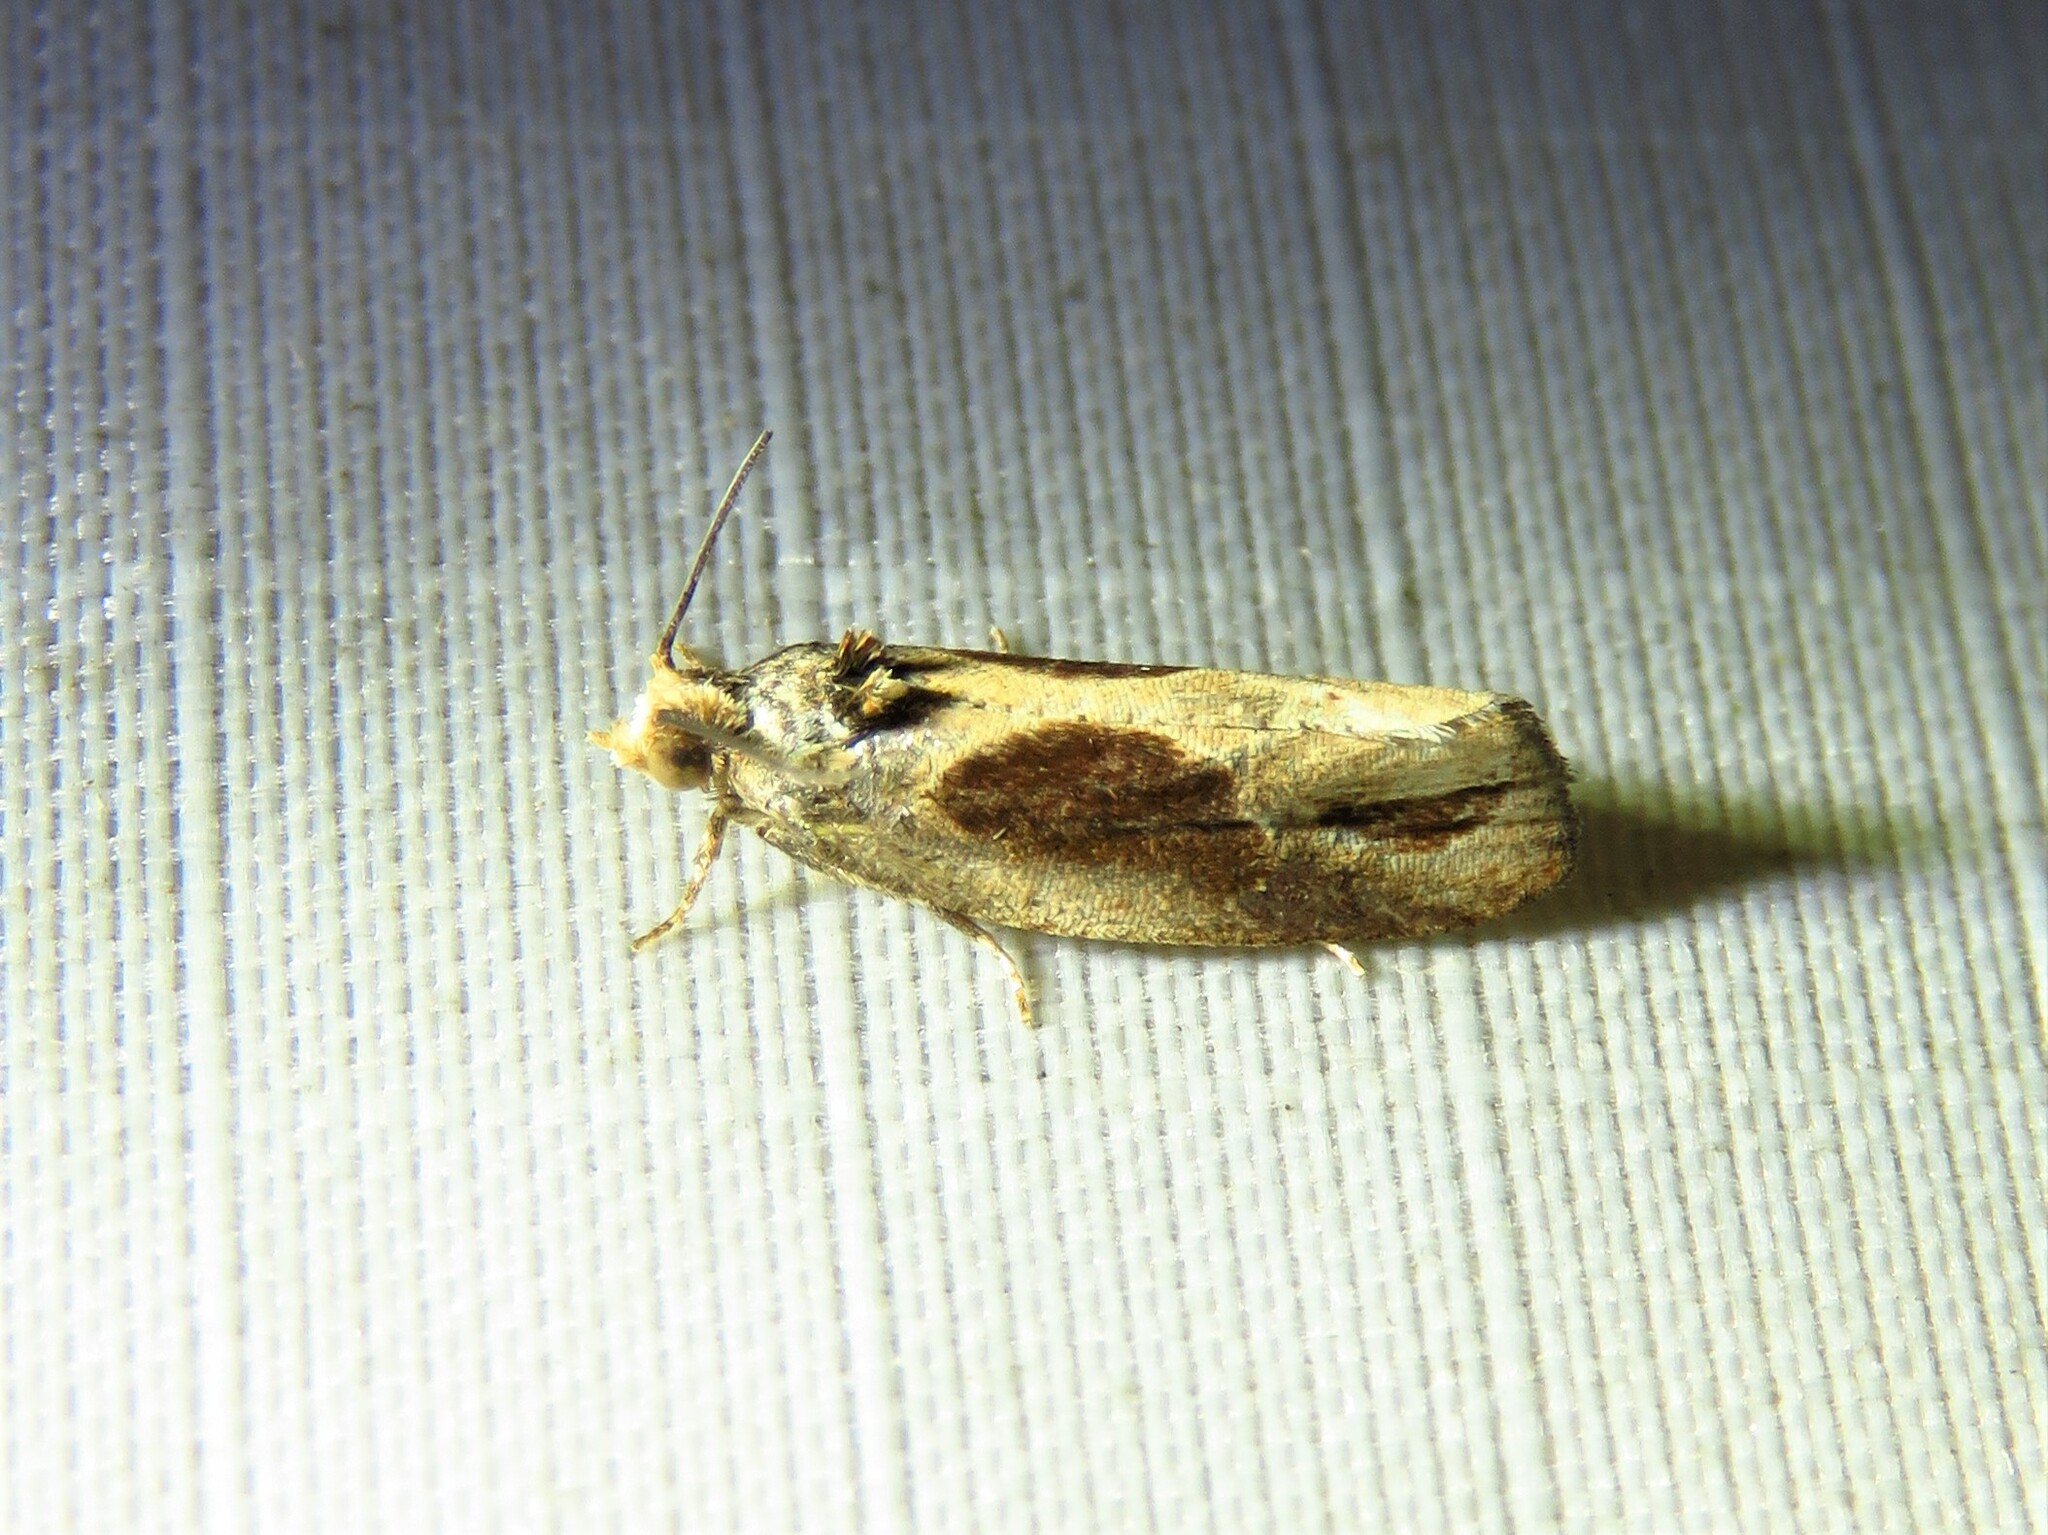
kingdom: Animalia
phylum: Arthropoda
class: Insecta
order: Lepidoptera
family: Tortricidae
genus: Eumarozia
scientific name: Eumarozia malachitana
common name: Sculptured moth
